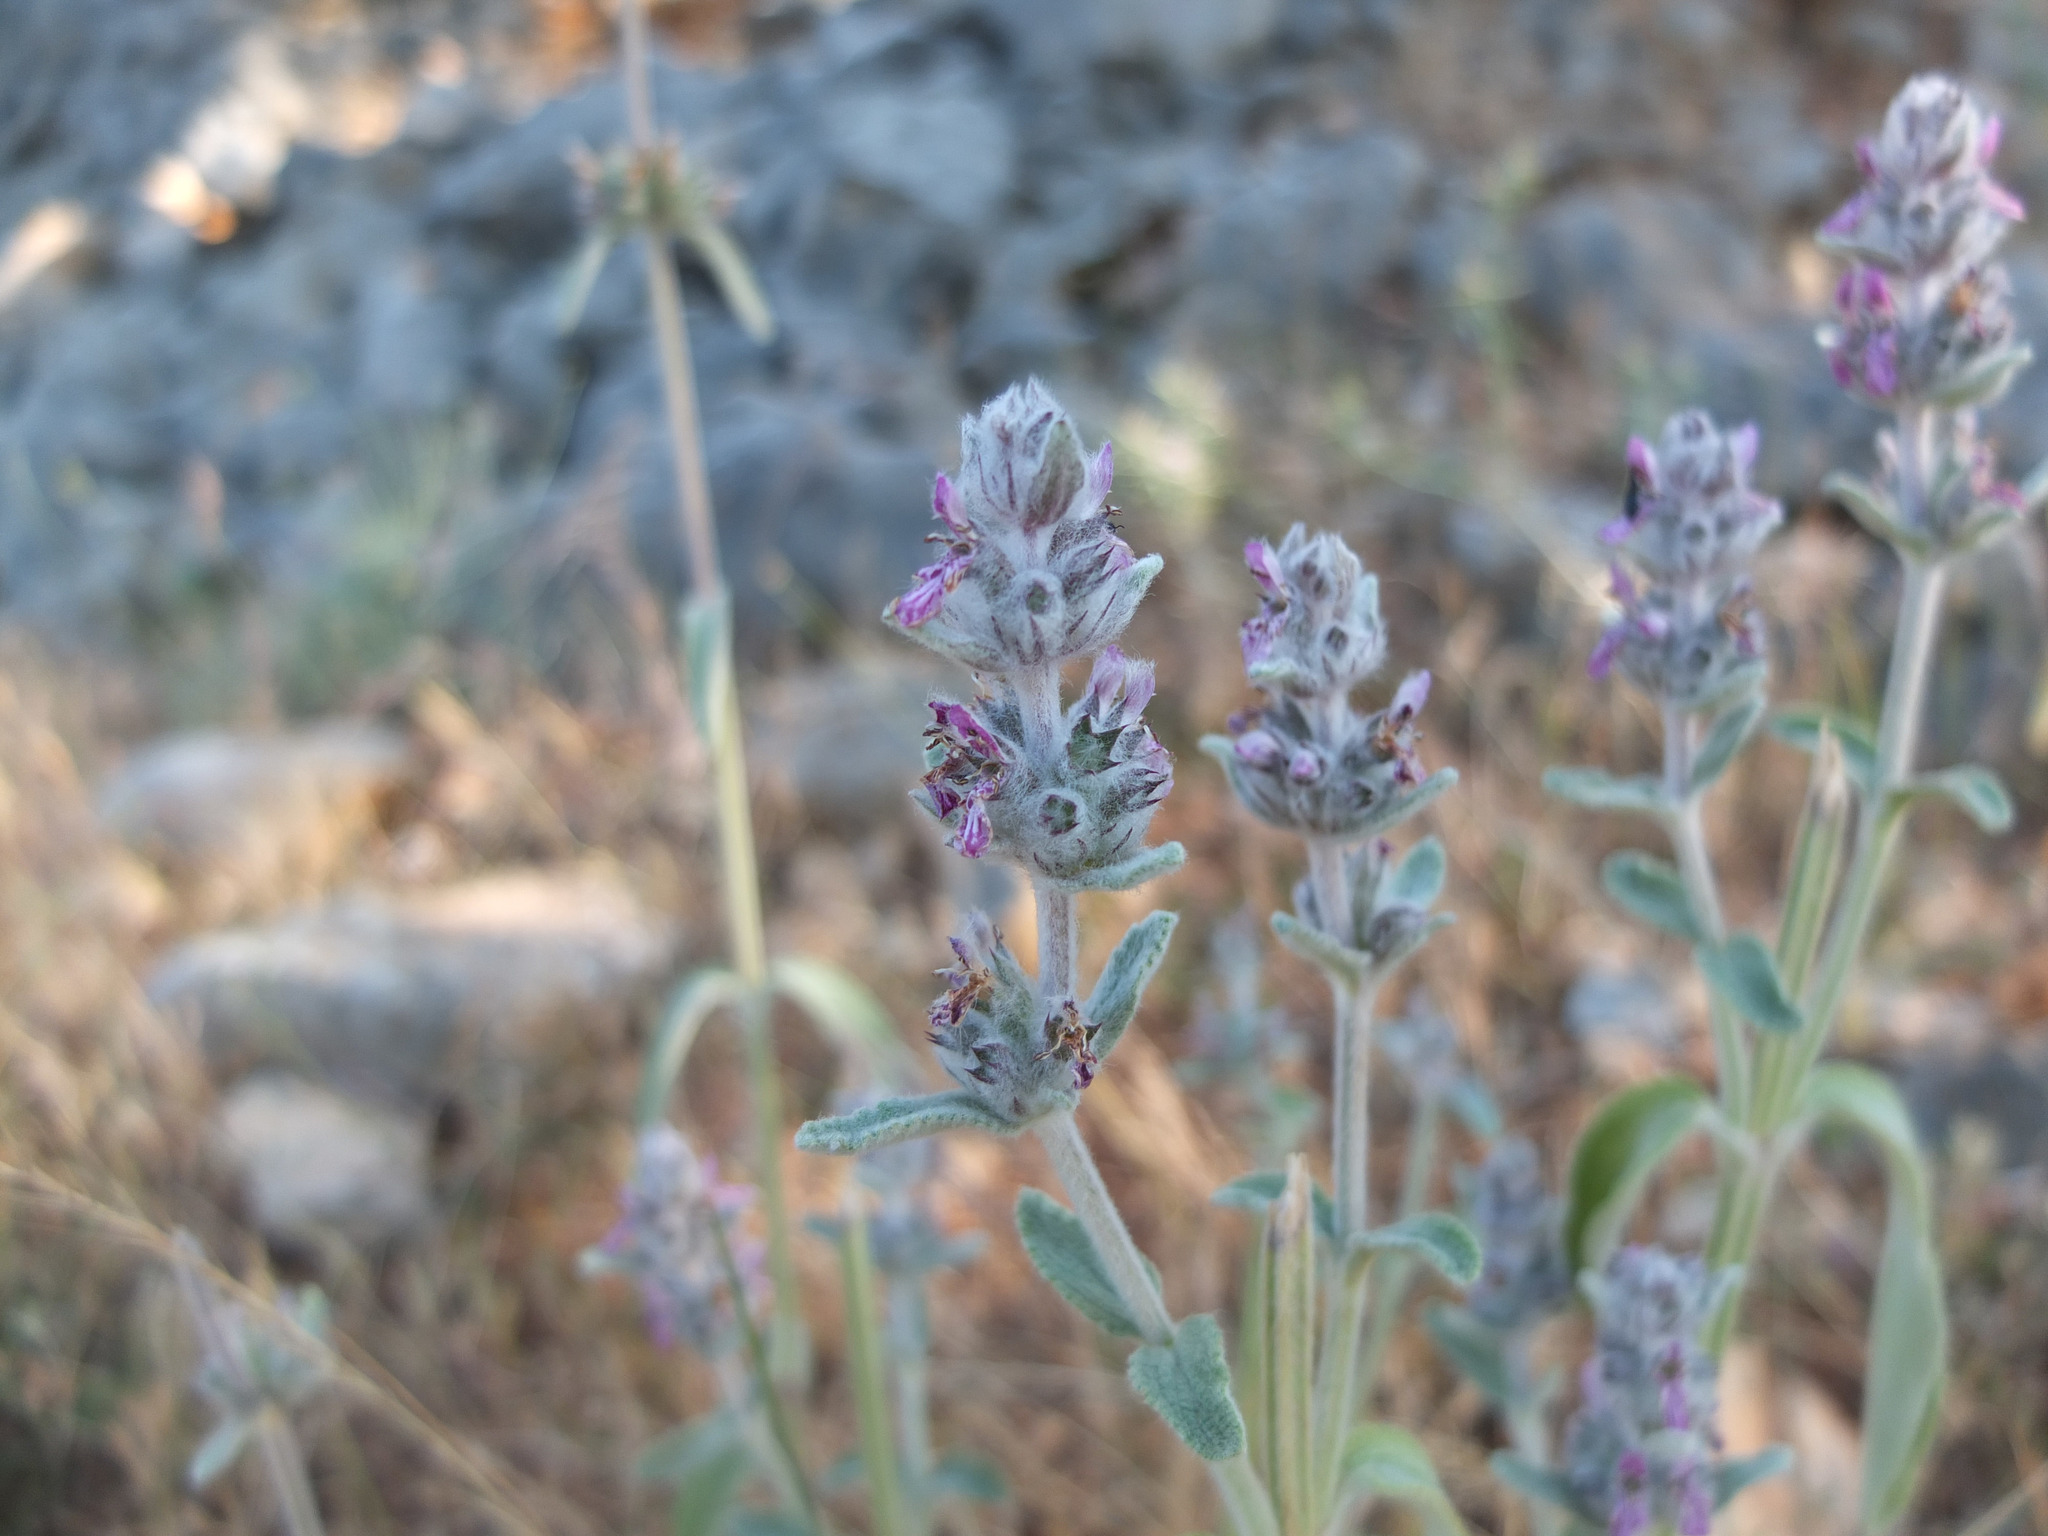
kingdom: Plantae
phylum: Tracheophyta
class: Magnoliopsida
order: Lamiales
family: Lamiaceae
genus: Stachys
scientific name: Stachys byzantina
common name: Lamb's-ear
